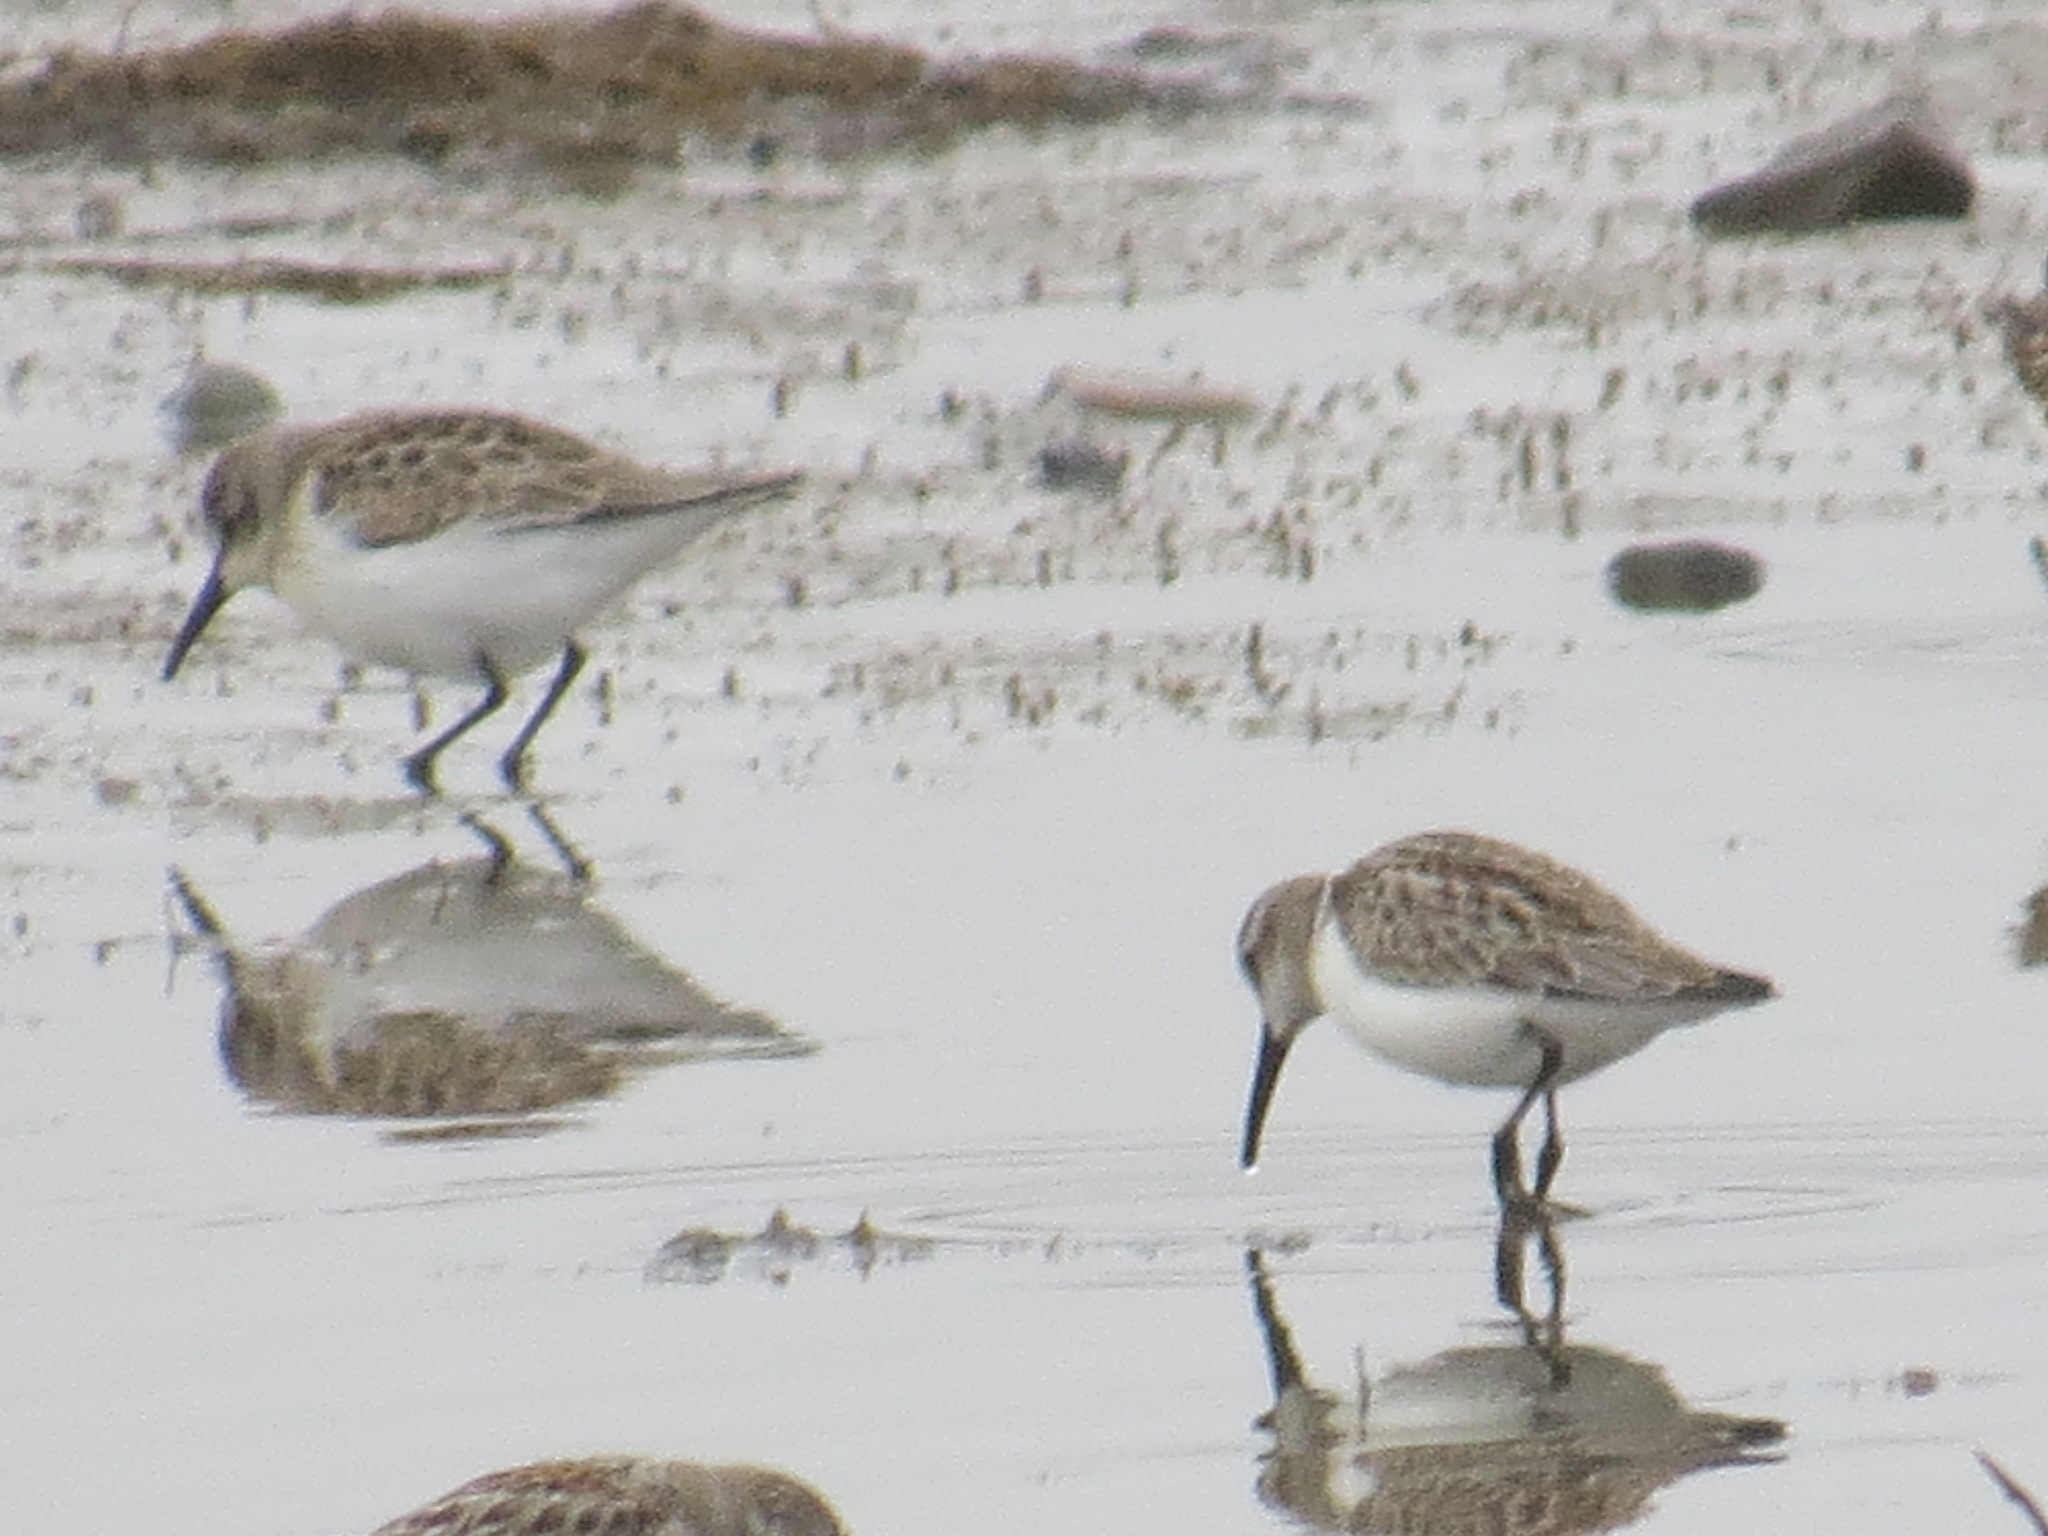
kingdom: Animalia
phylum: Chordata
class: Aves
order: Charadriiformes
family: Scolopacidae
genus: Calidris
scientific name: Calidris mauri
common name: Western sandpiper
